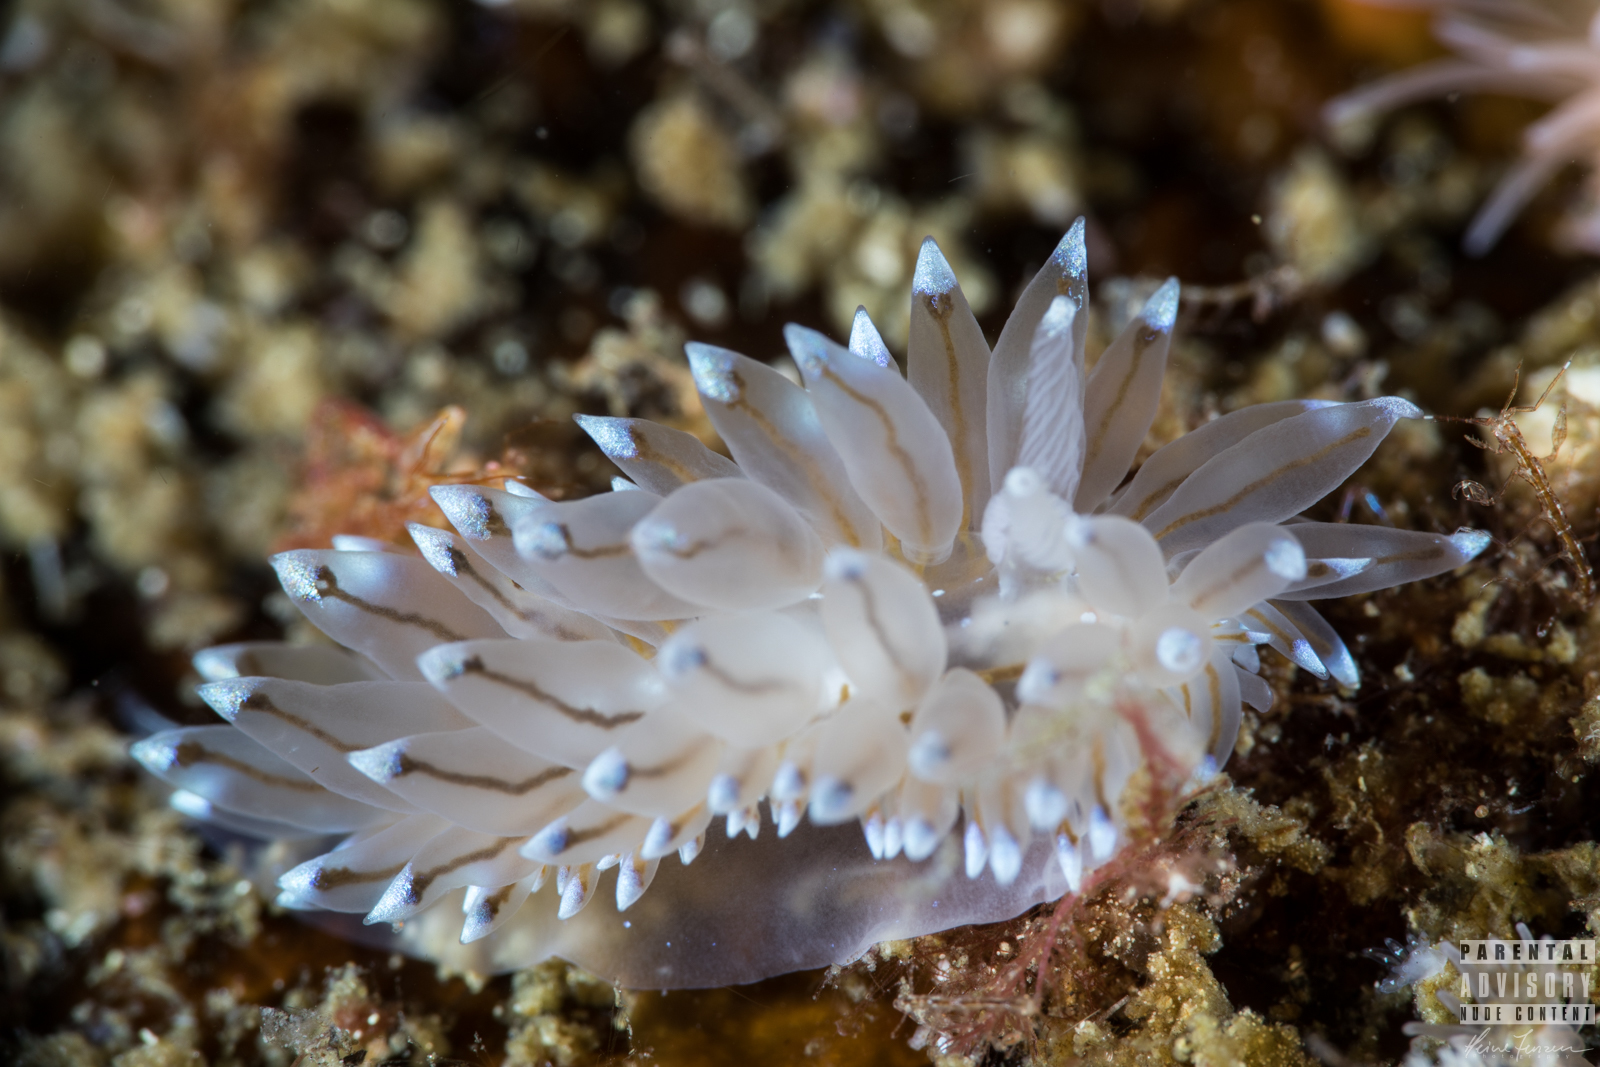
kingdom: Animalia
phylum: Mollusca
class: Gastropoda
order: Nudibranchia
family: Janolidae
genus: Antiopella
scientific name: Antiopella cristata
